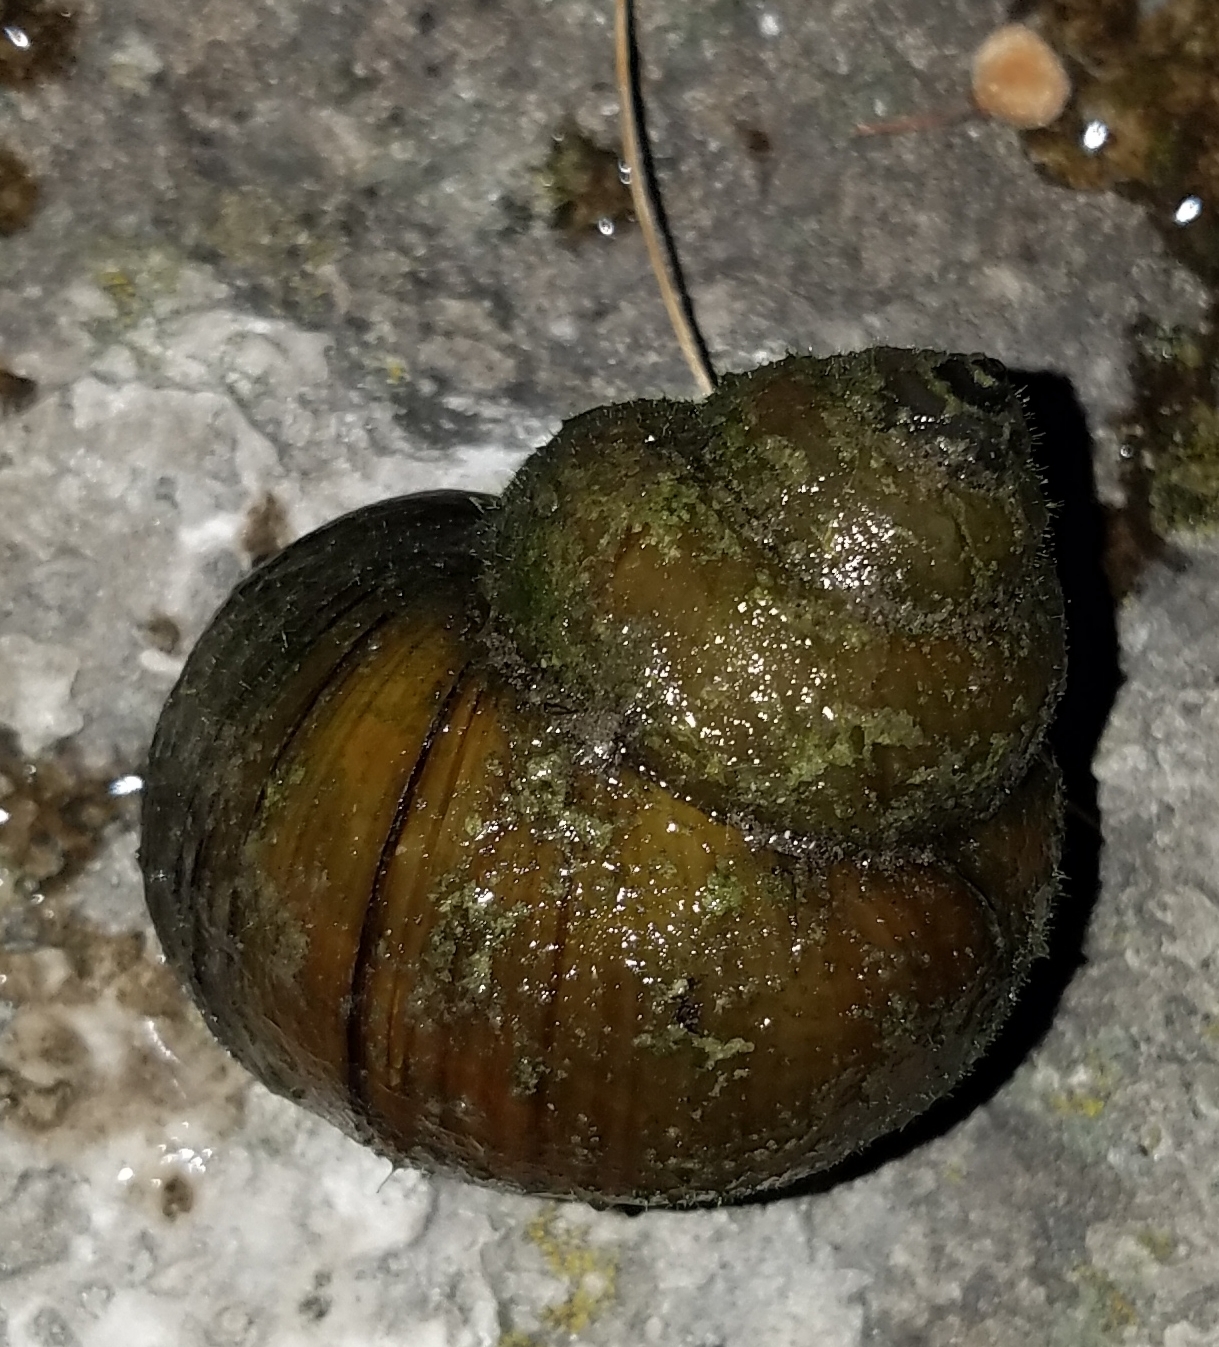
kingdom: Animalia
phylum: Mollusca
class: Gastropoda
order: Architaenioglossa
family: Viviparidae
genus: Cipangopaludina
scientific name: Cipangopaludina chinensis
